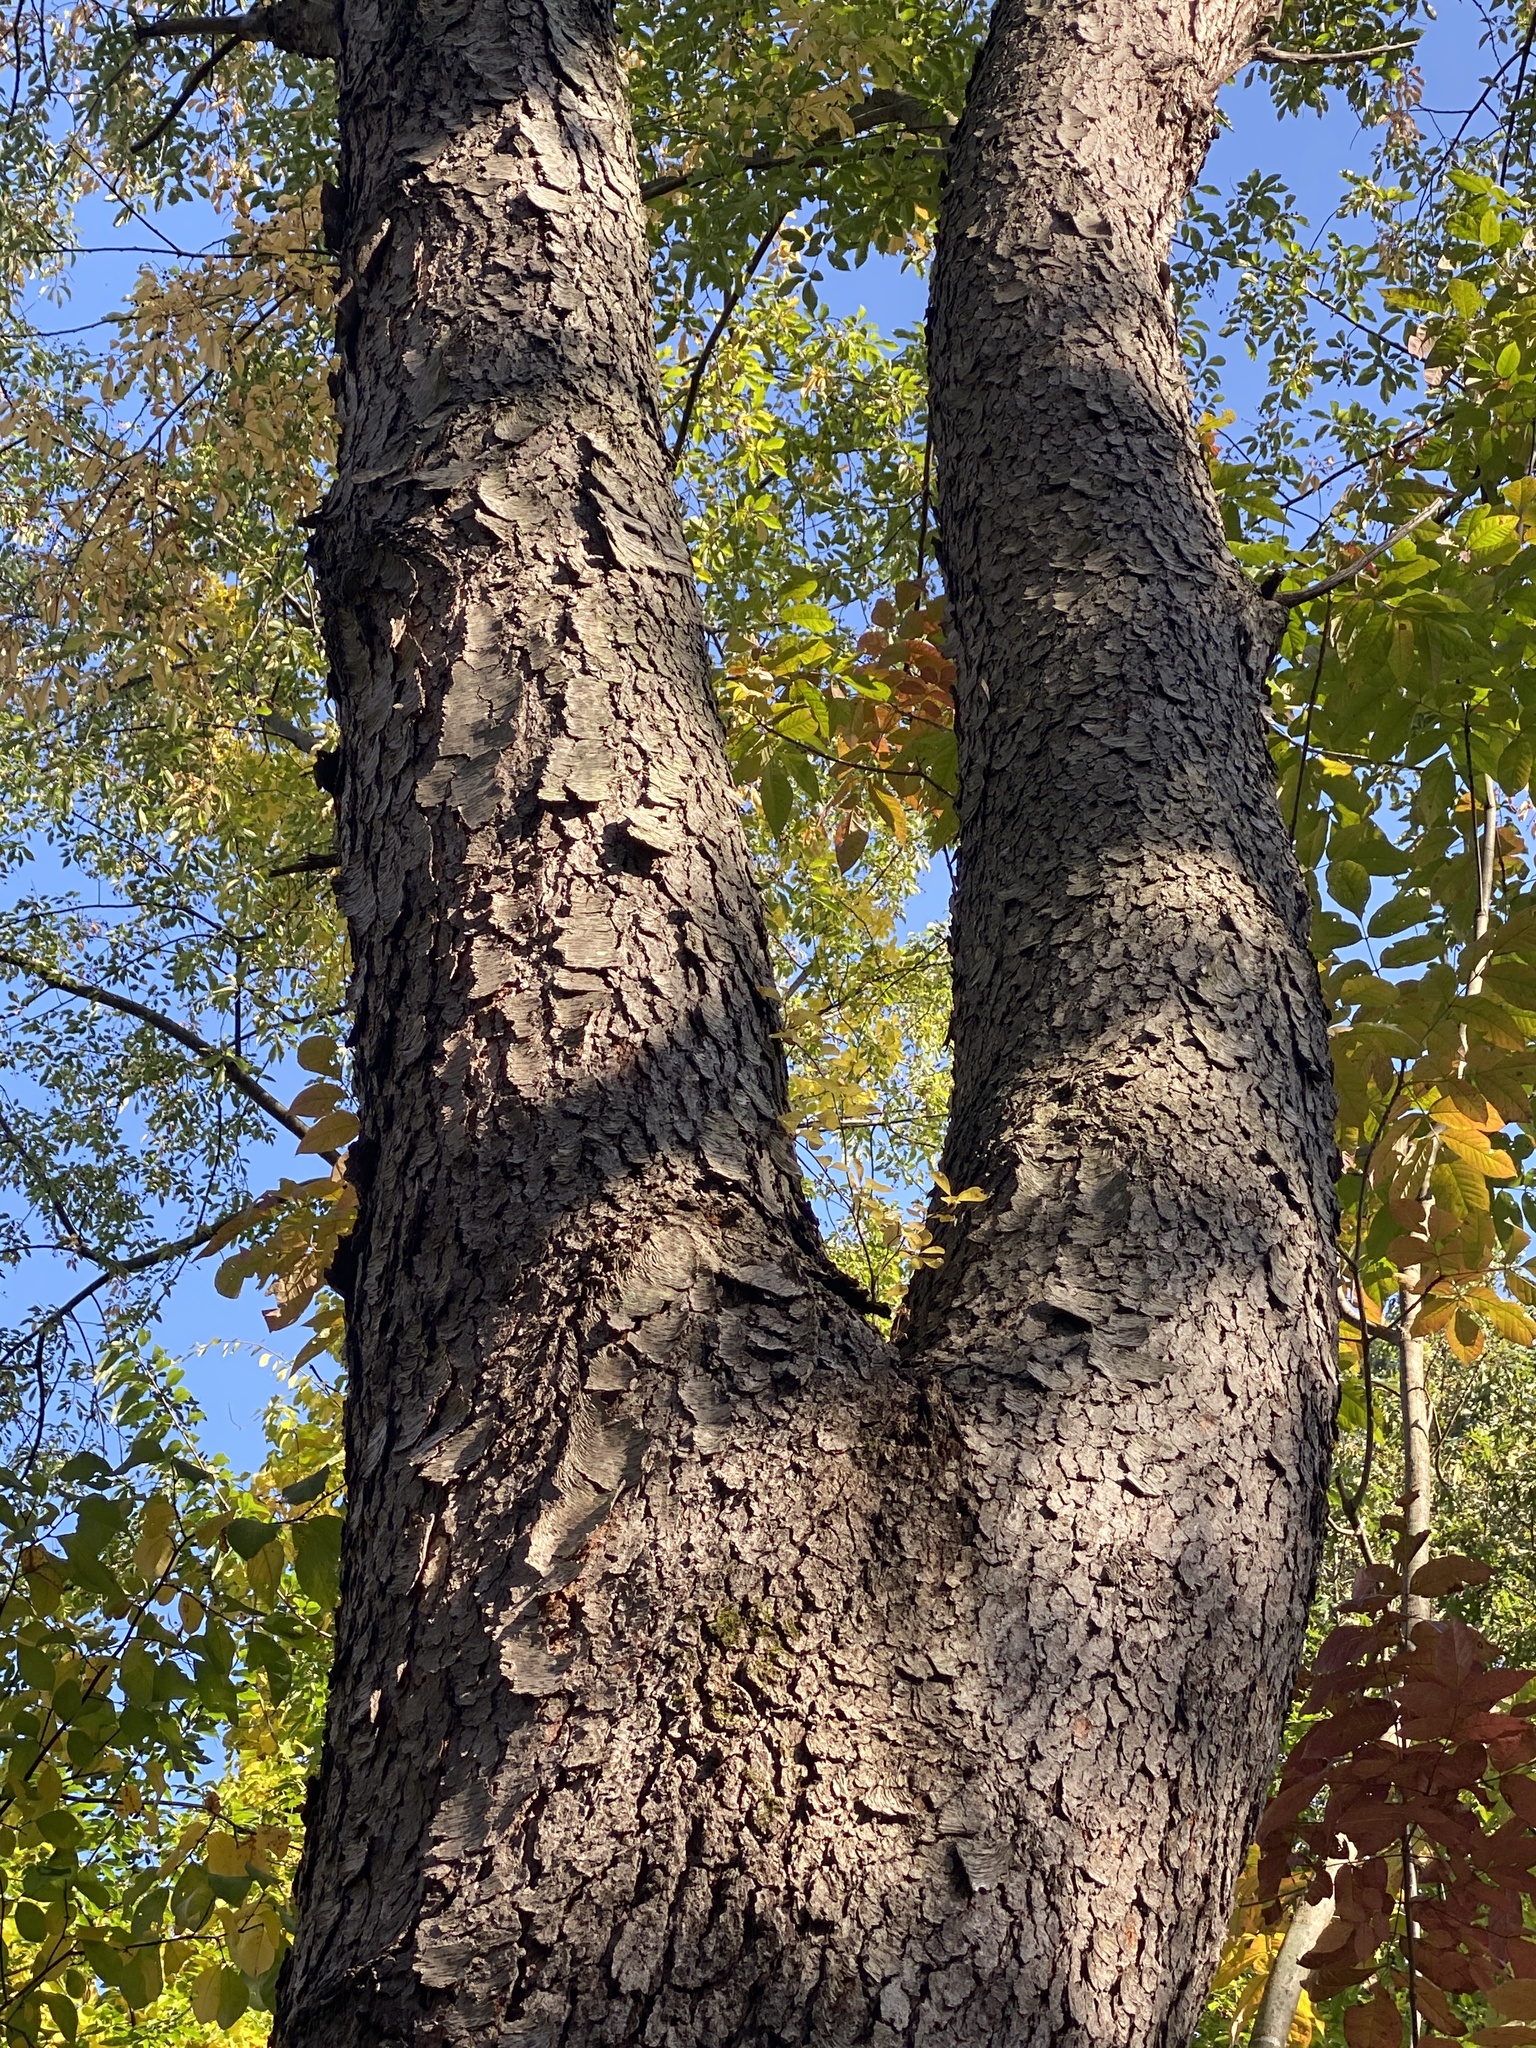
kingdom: Plantae
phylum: Tracheophyta
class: Magnoliopsida
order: Rosales
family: Rosaceae
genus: Prunus
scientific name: Prunus serotina
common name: Black cherry
